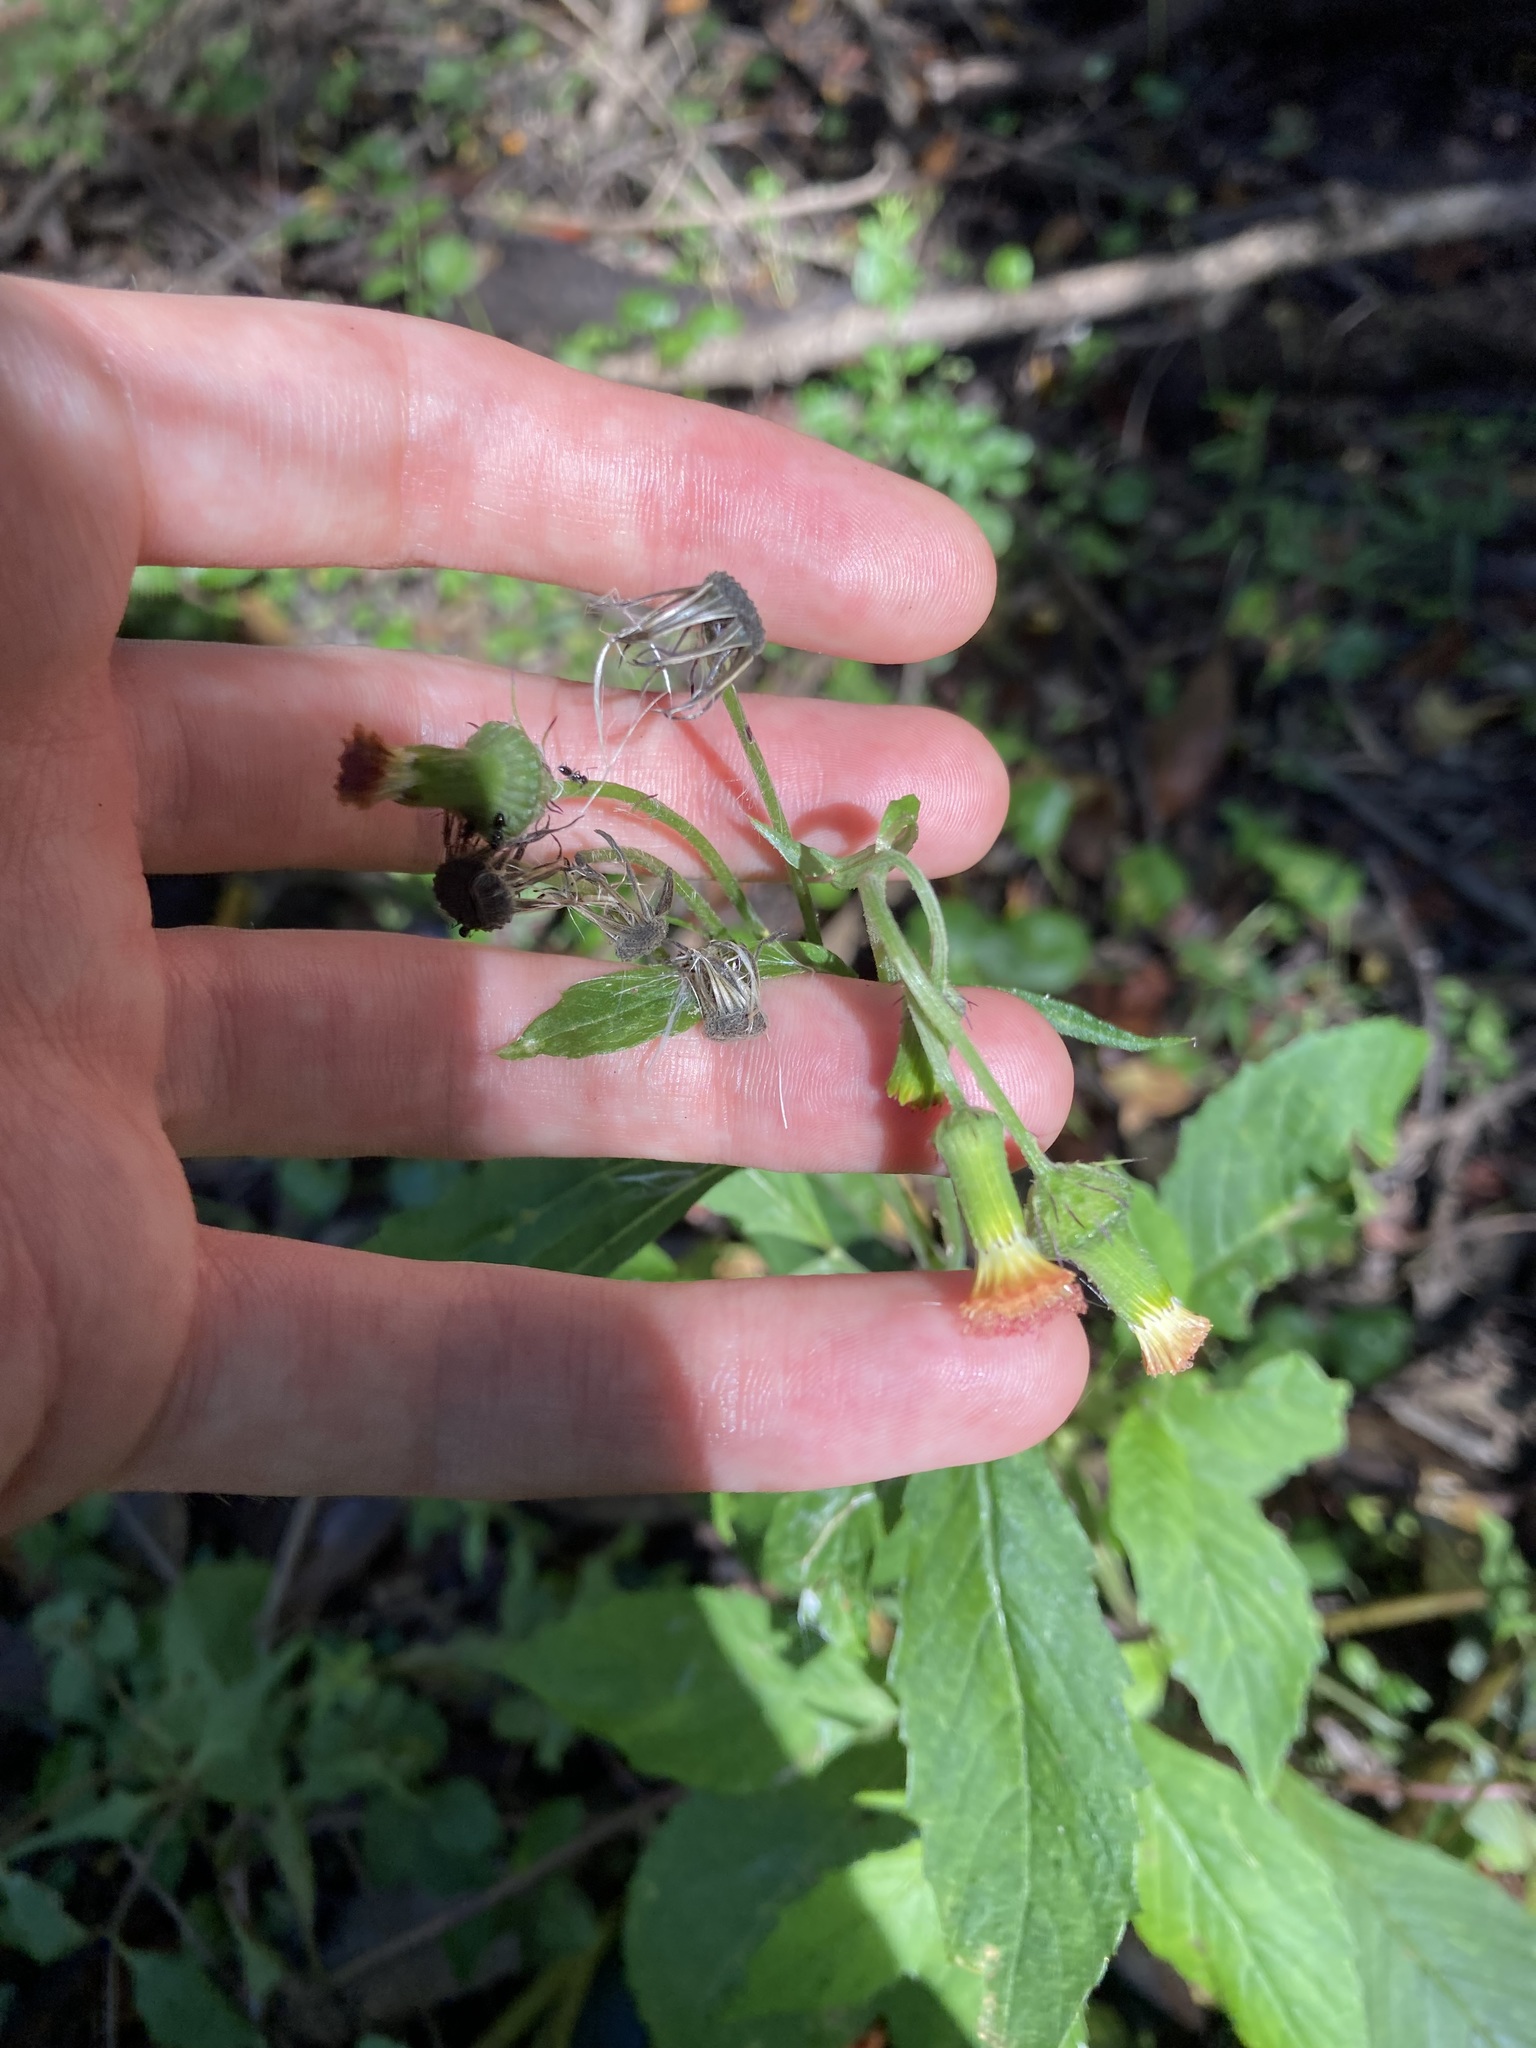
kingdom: Plantae
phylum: Tracheophyta
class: Magnoliopsida
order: Asterales
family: Asteraceae
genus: Crassocephalum
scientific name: Crassocephalum crepidioides
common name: Redflower ragleaf
